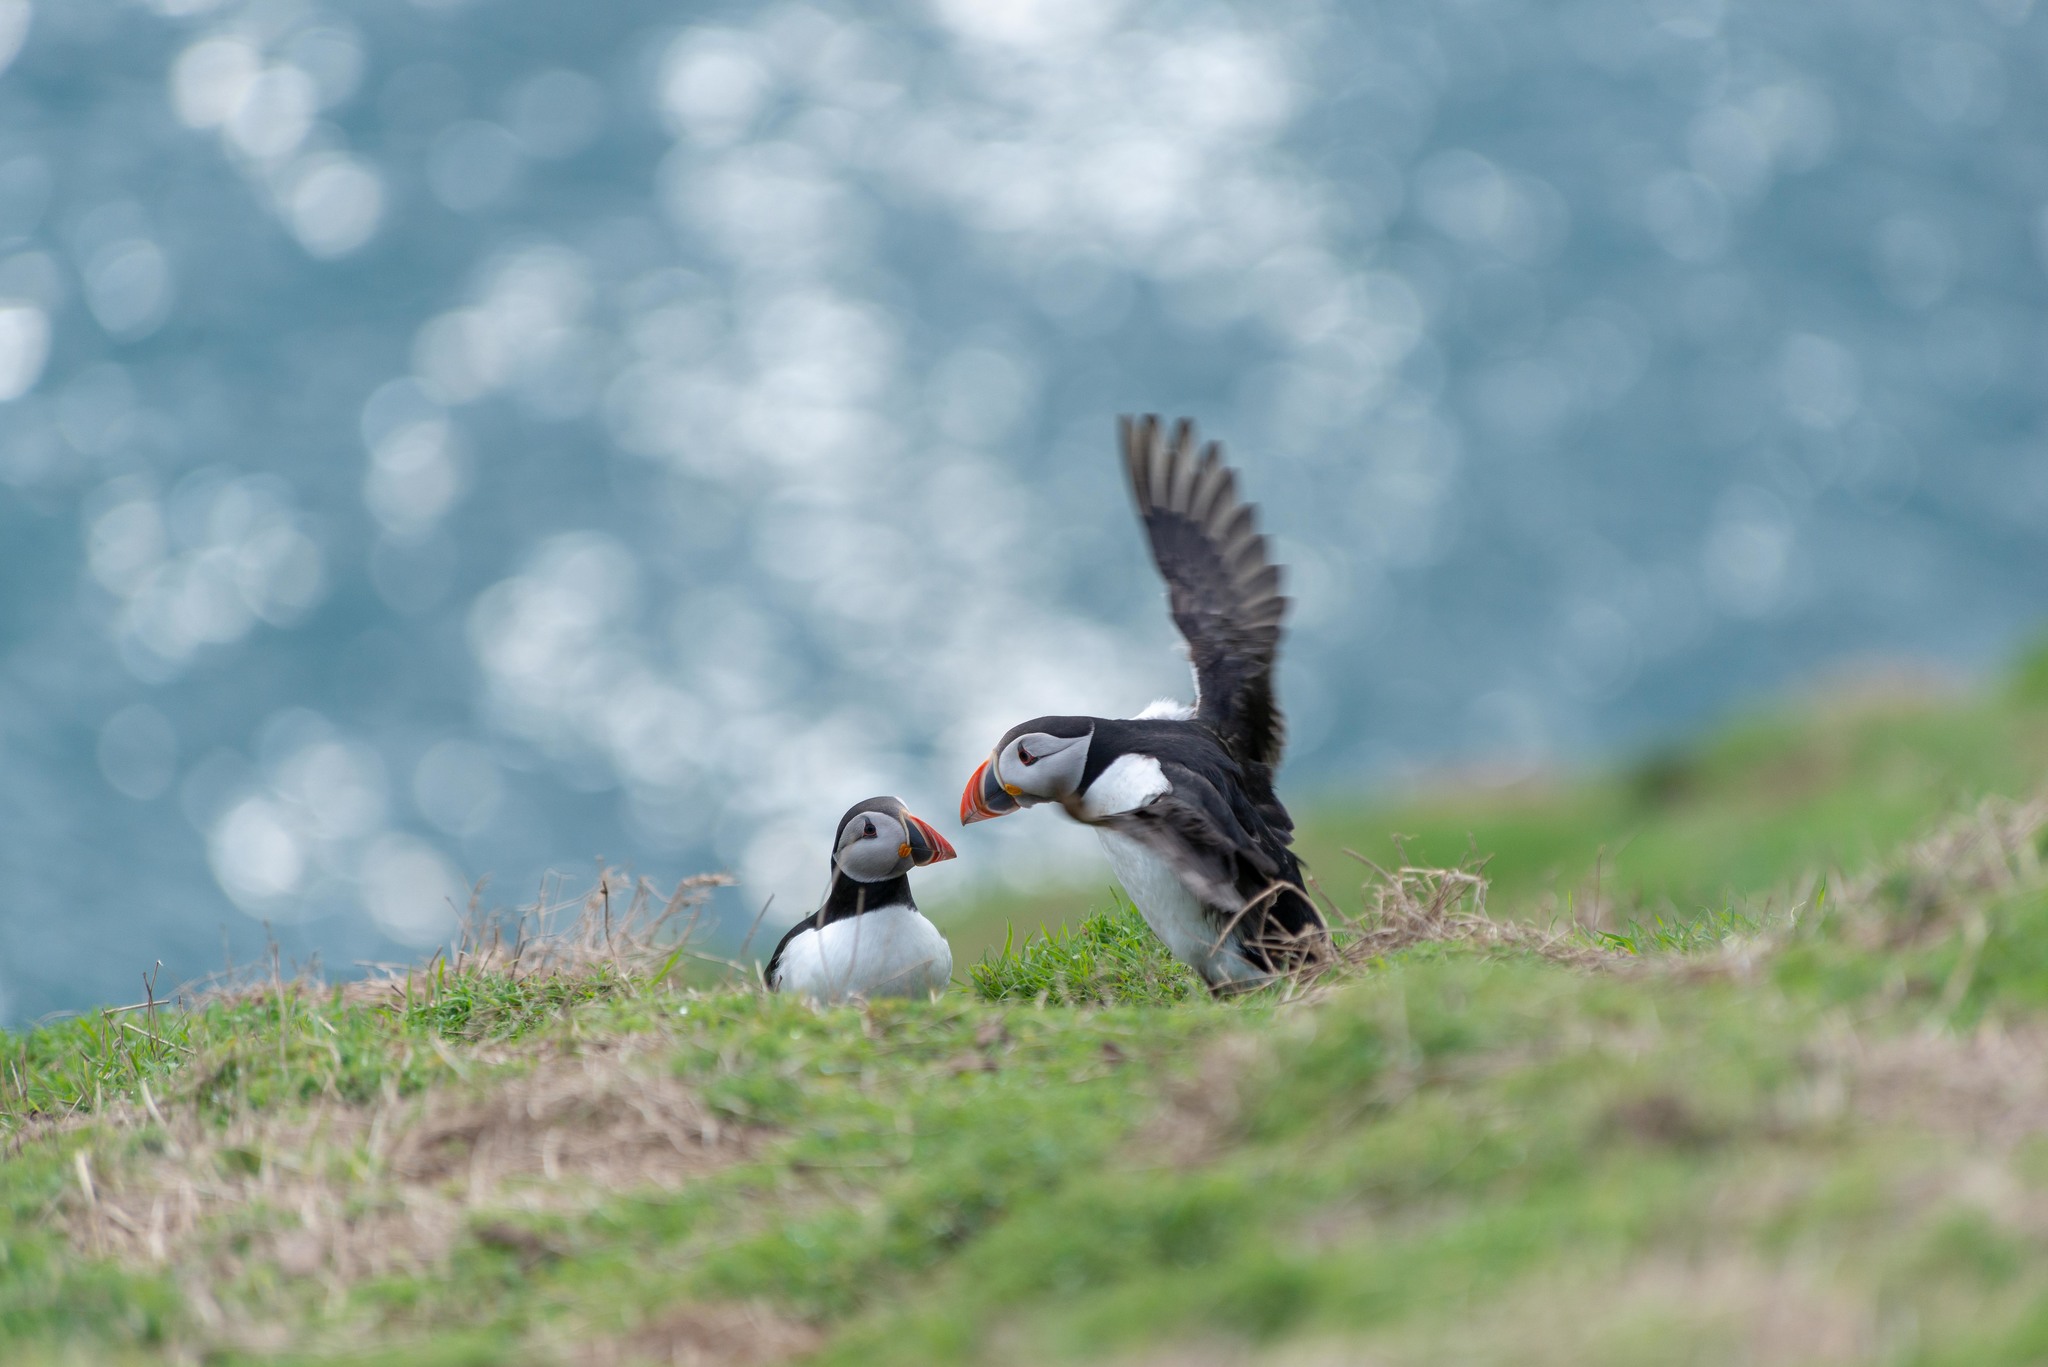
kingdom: Animalia
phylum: Chordata
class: Aves
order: Charadriiformes
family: Alcidae
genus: Fratercula
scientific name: Fratercula arctica
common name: Atlantic puffin
